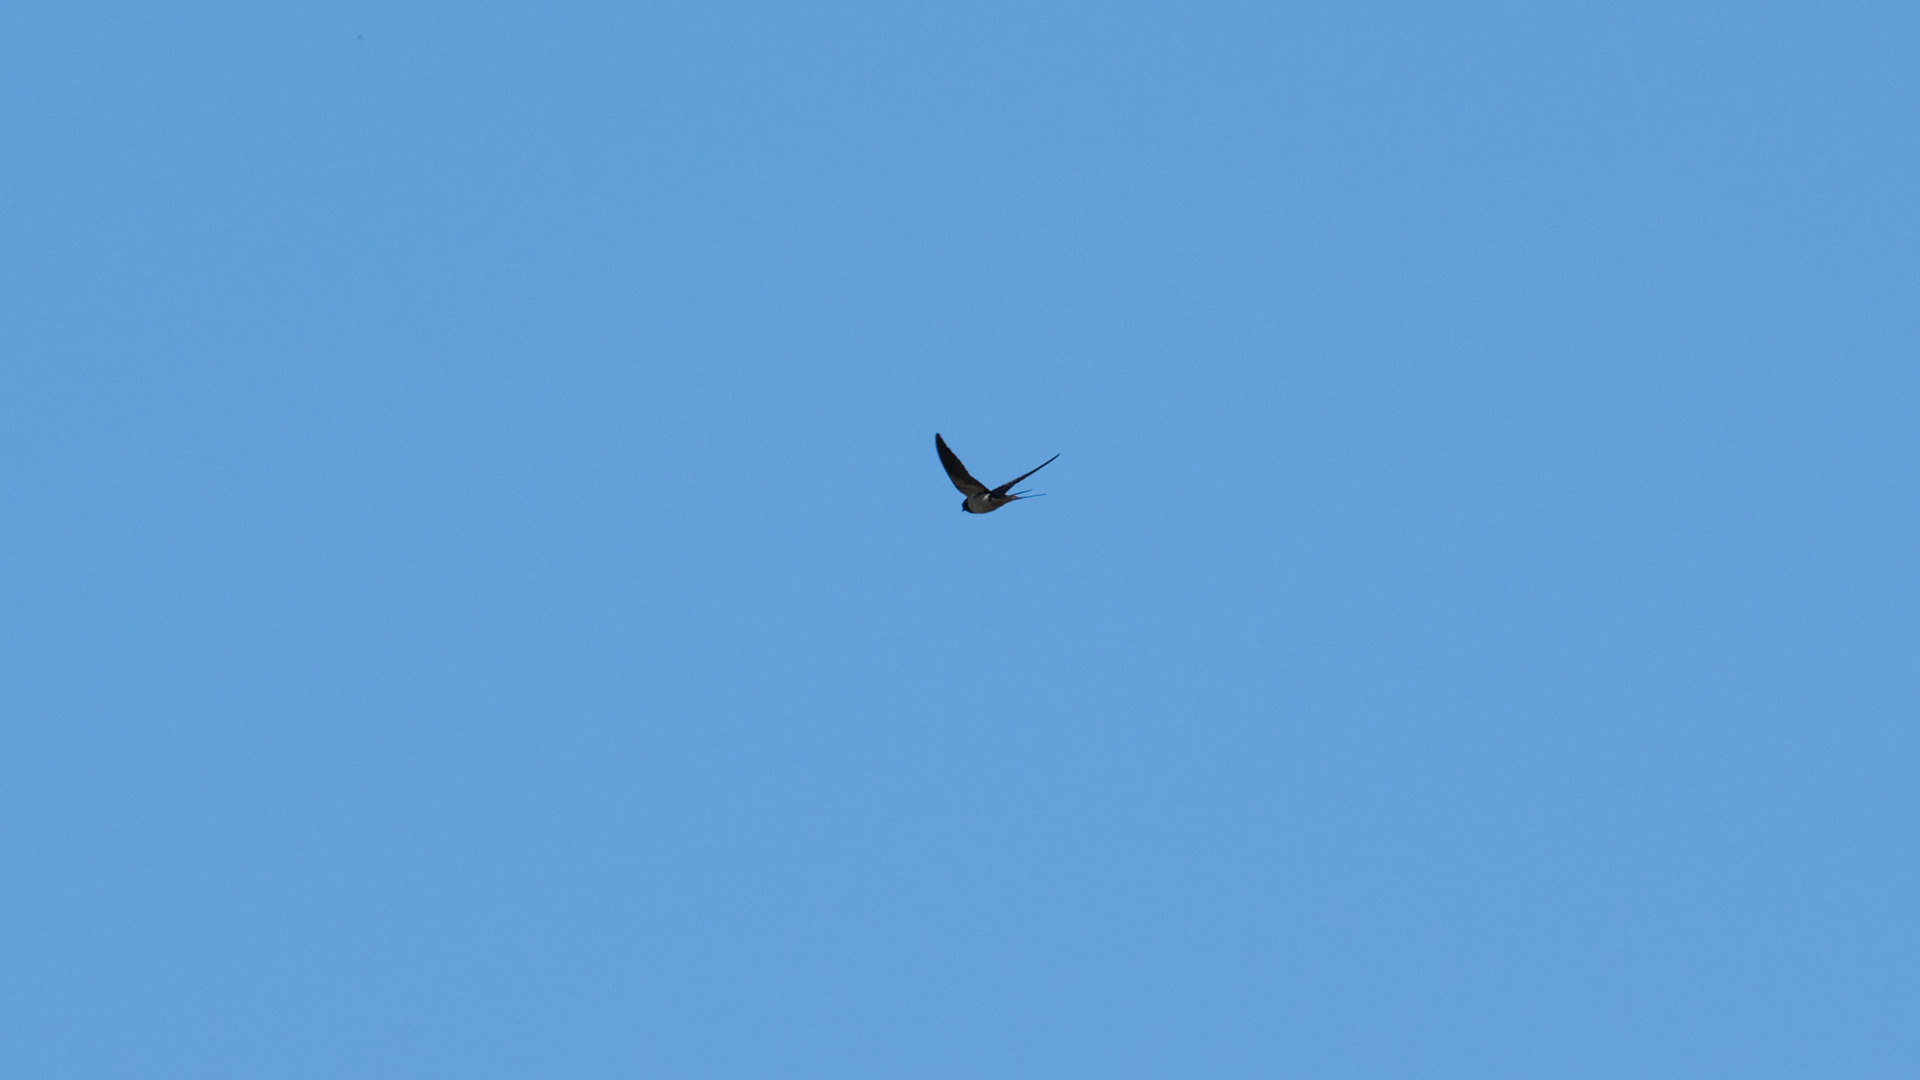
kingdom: Animalia
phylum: Chordata
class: Aves
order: Passeriformes
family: Hirundinidae
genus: Hirundo
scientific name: Hirundo rustica
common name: Barn swallow
